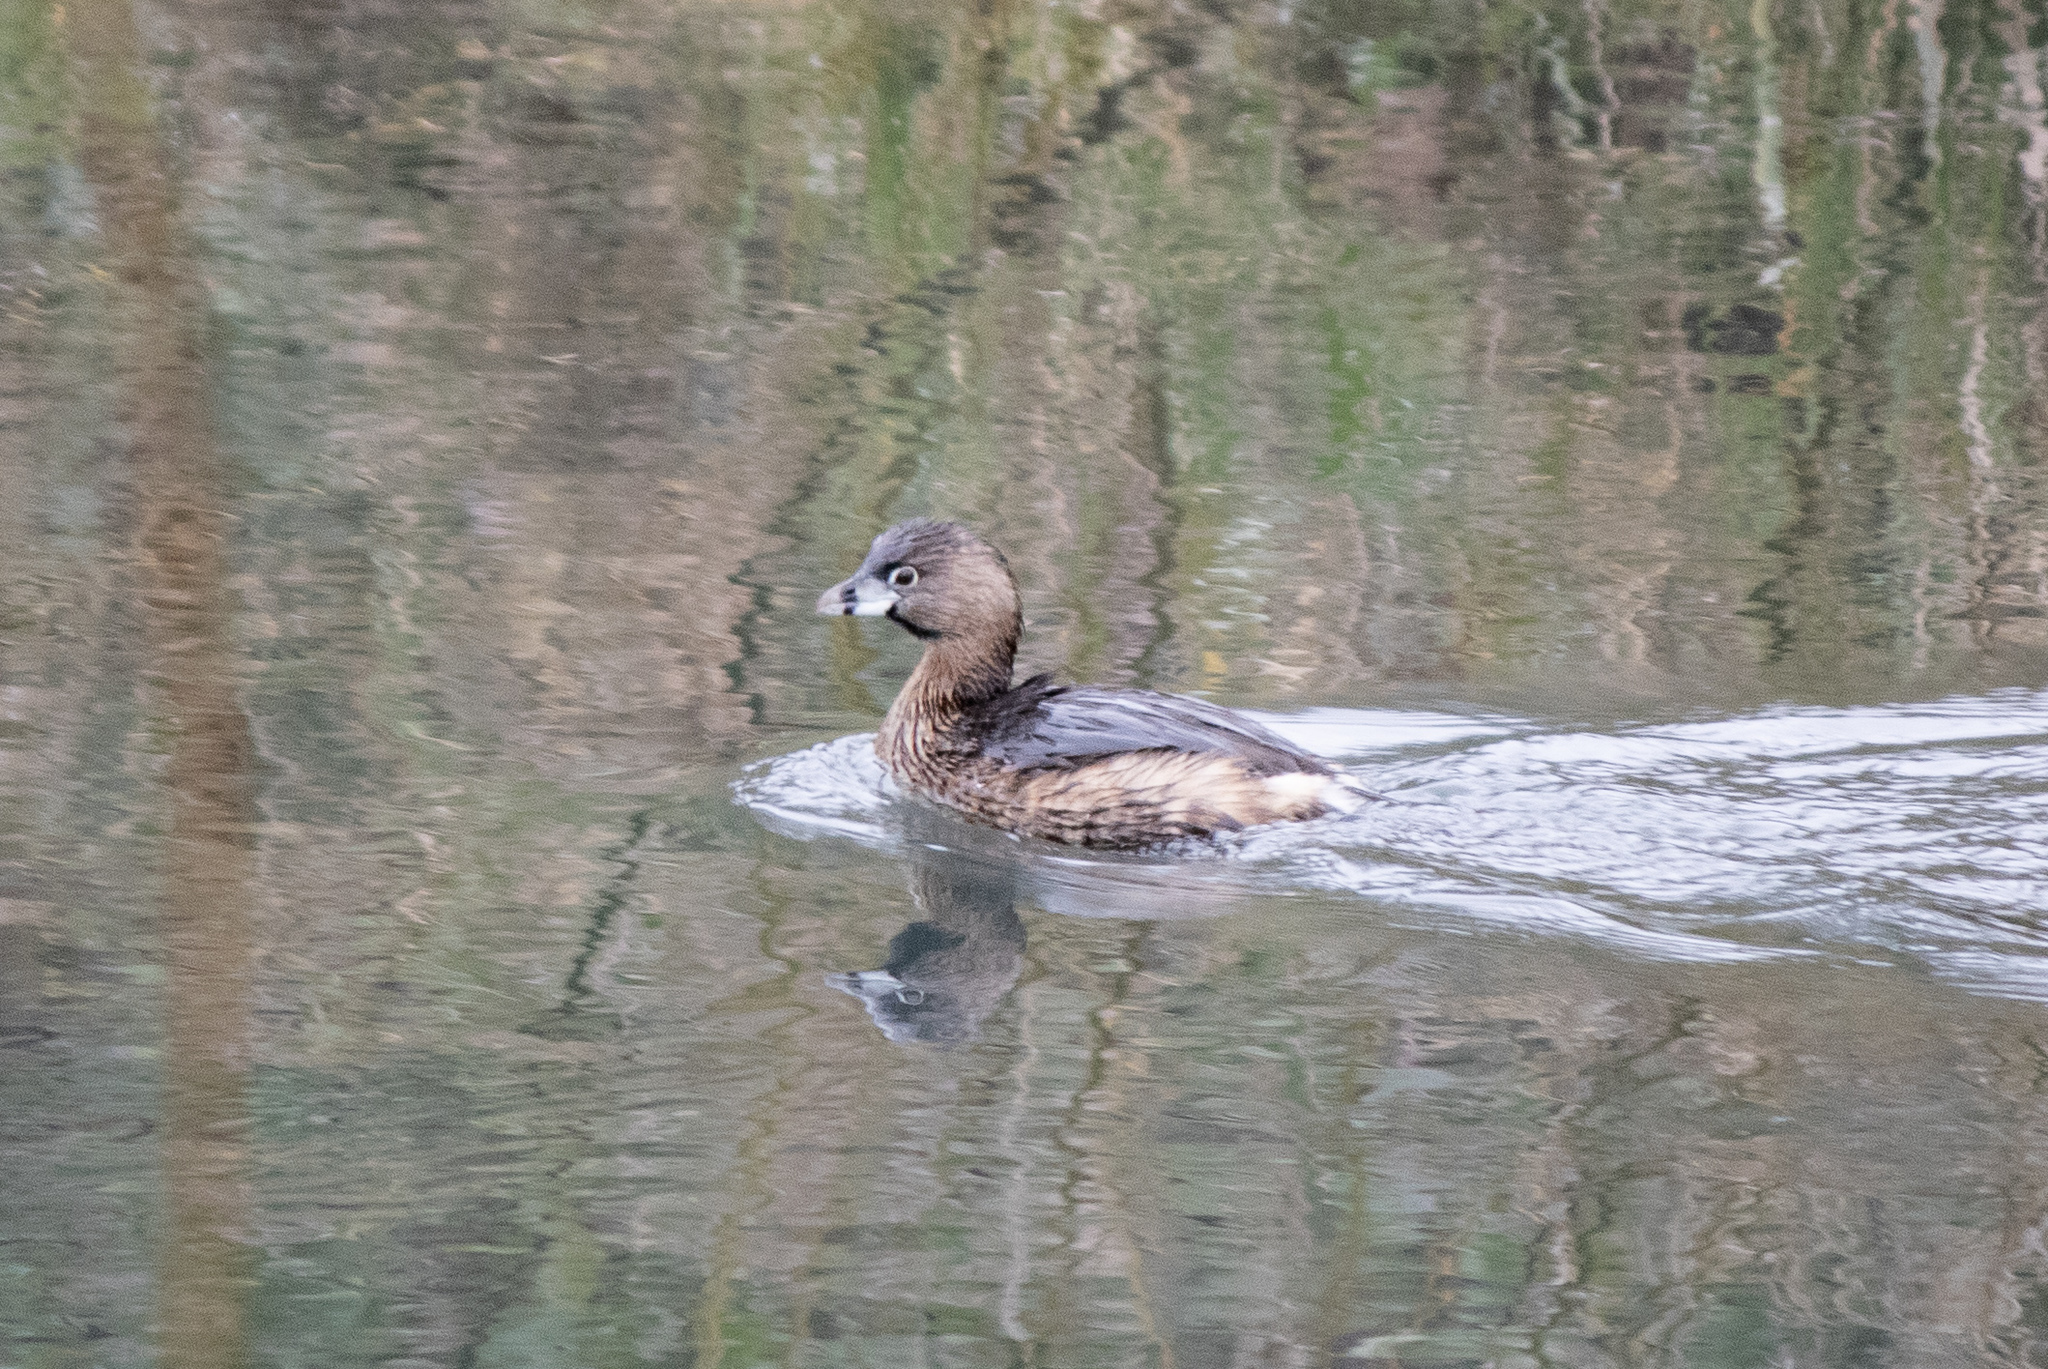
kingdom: Animalia
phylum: Chordata
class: Aves
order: Podicipediformes
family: Podicipedidae
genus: Podilymbus
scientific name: Podilymbus podiceps
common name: Pied-billed grebe
